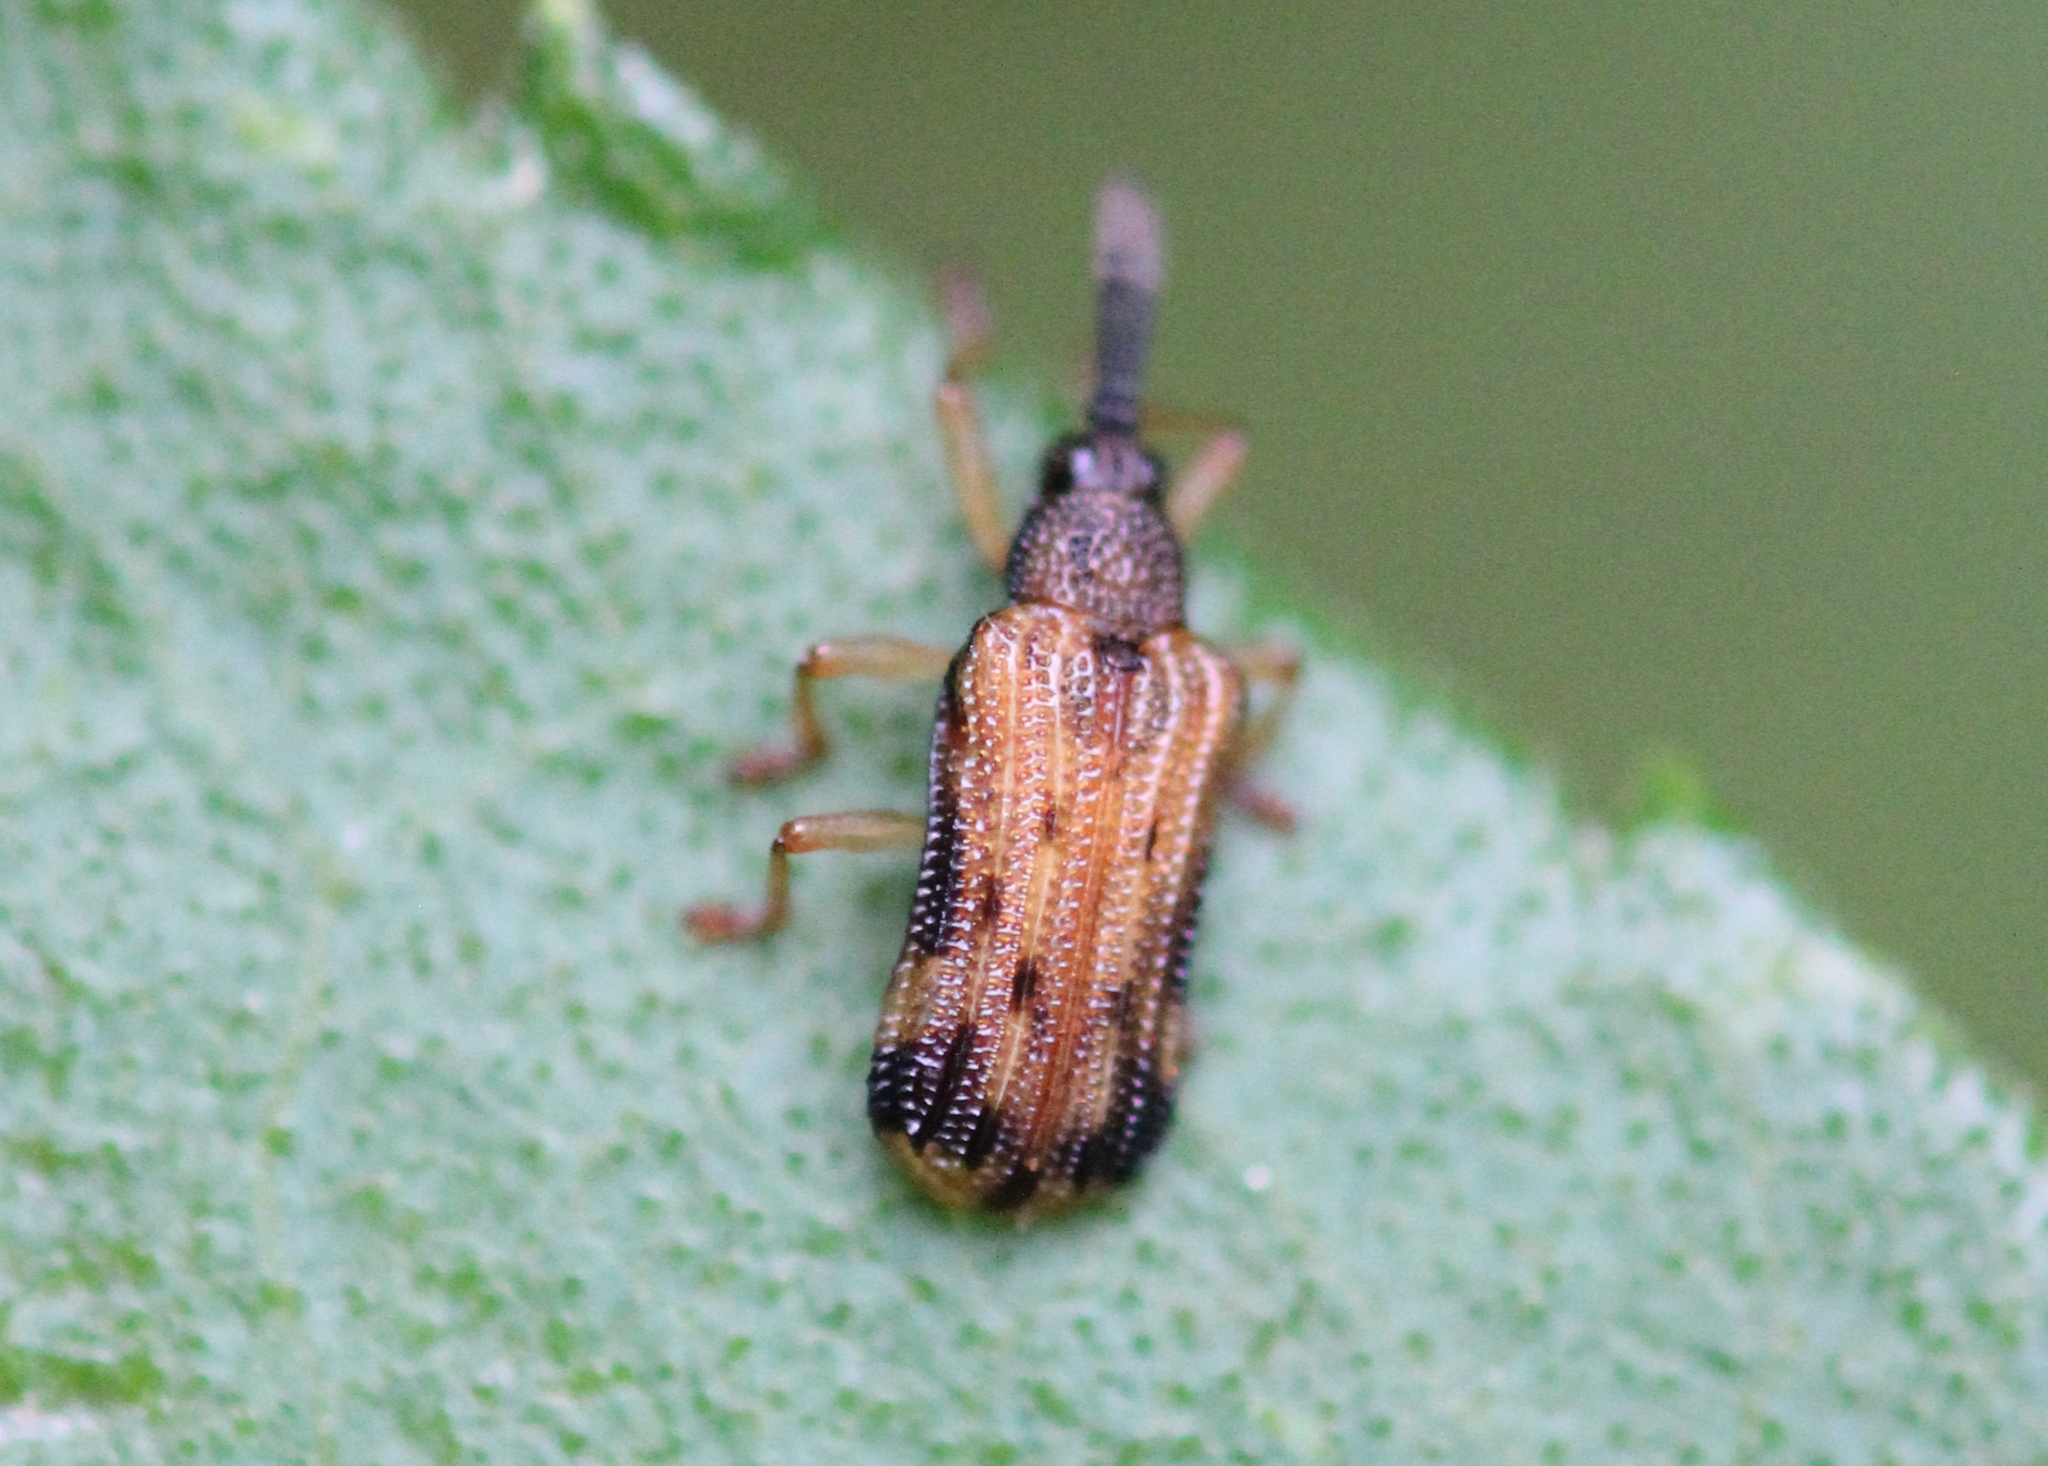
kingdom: Animalia
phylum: Arthropoda
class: Insecta
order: Coleoptera
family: Chrysomelidae
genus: Sumitrosis
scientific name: Sumitrosis inaequalis
